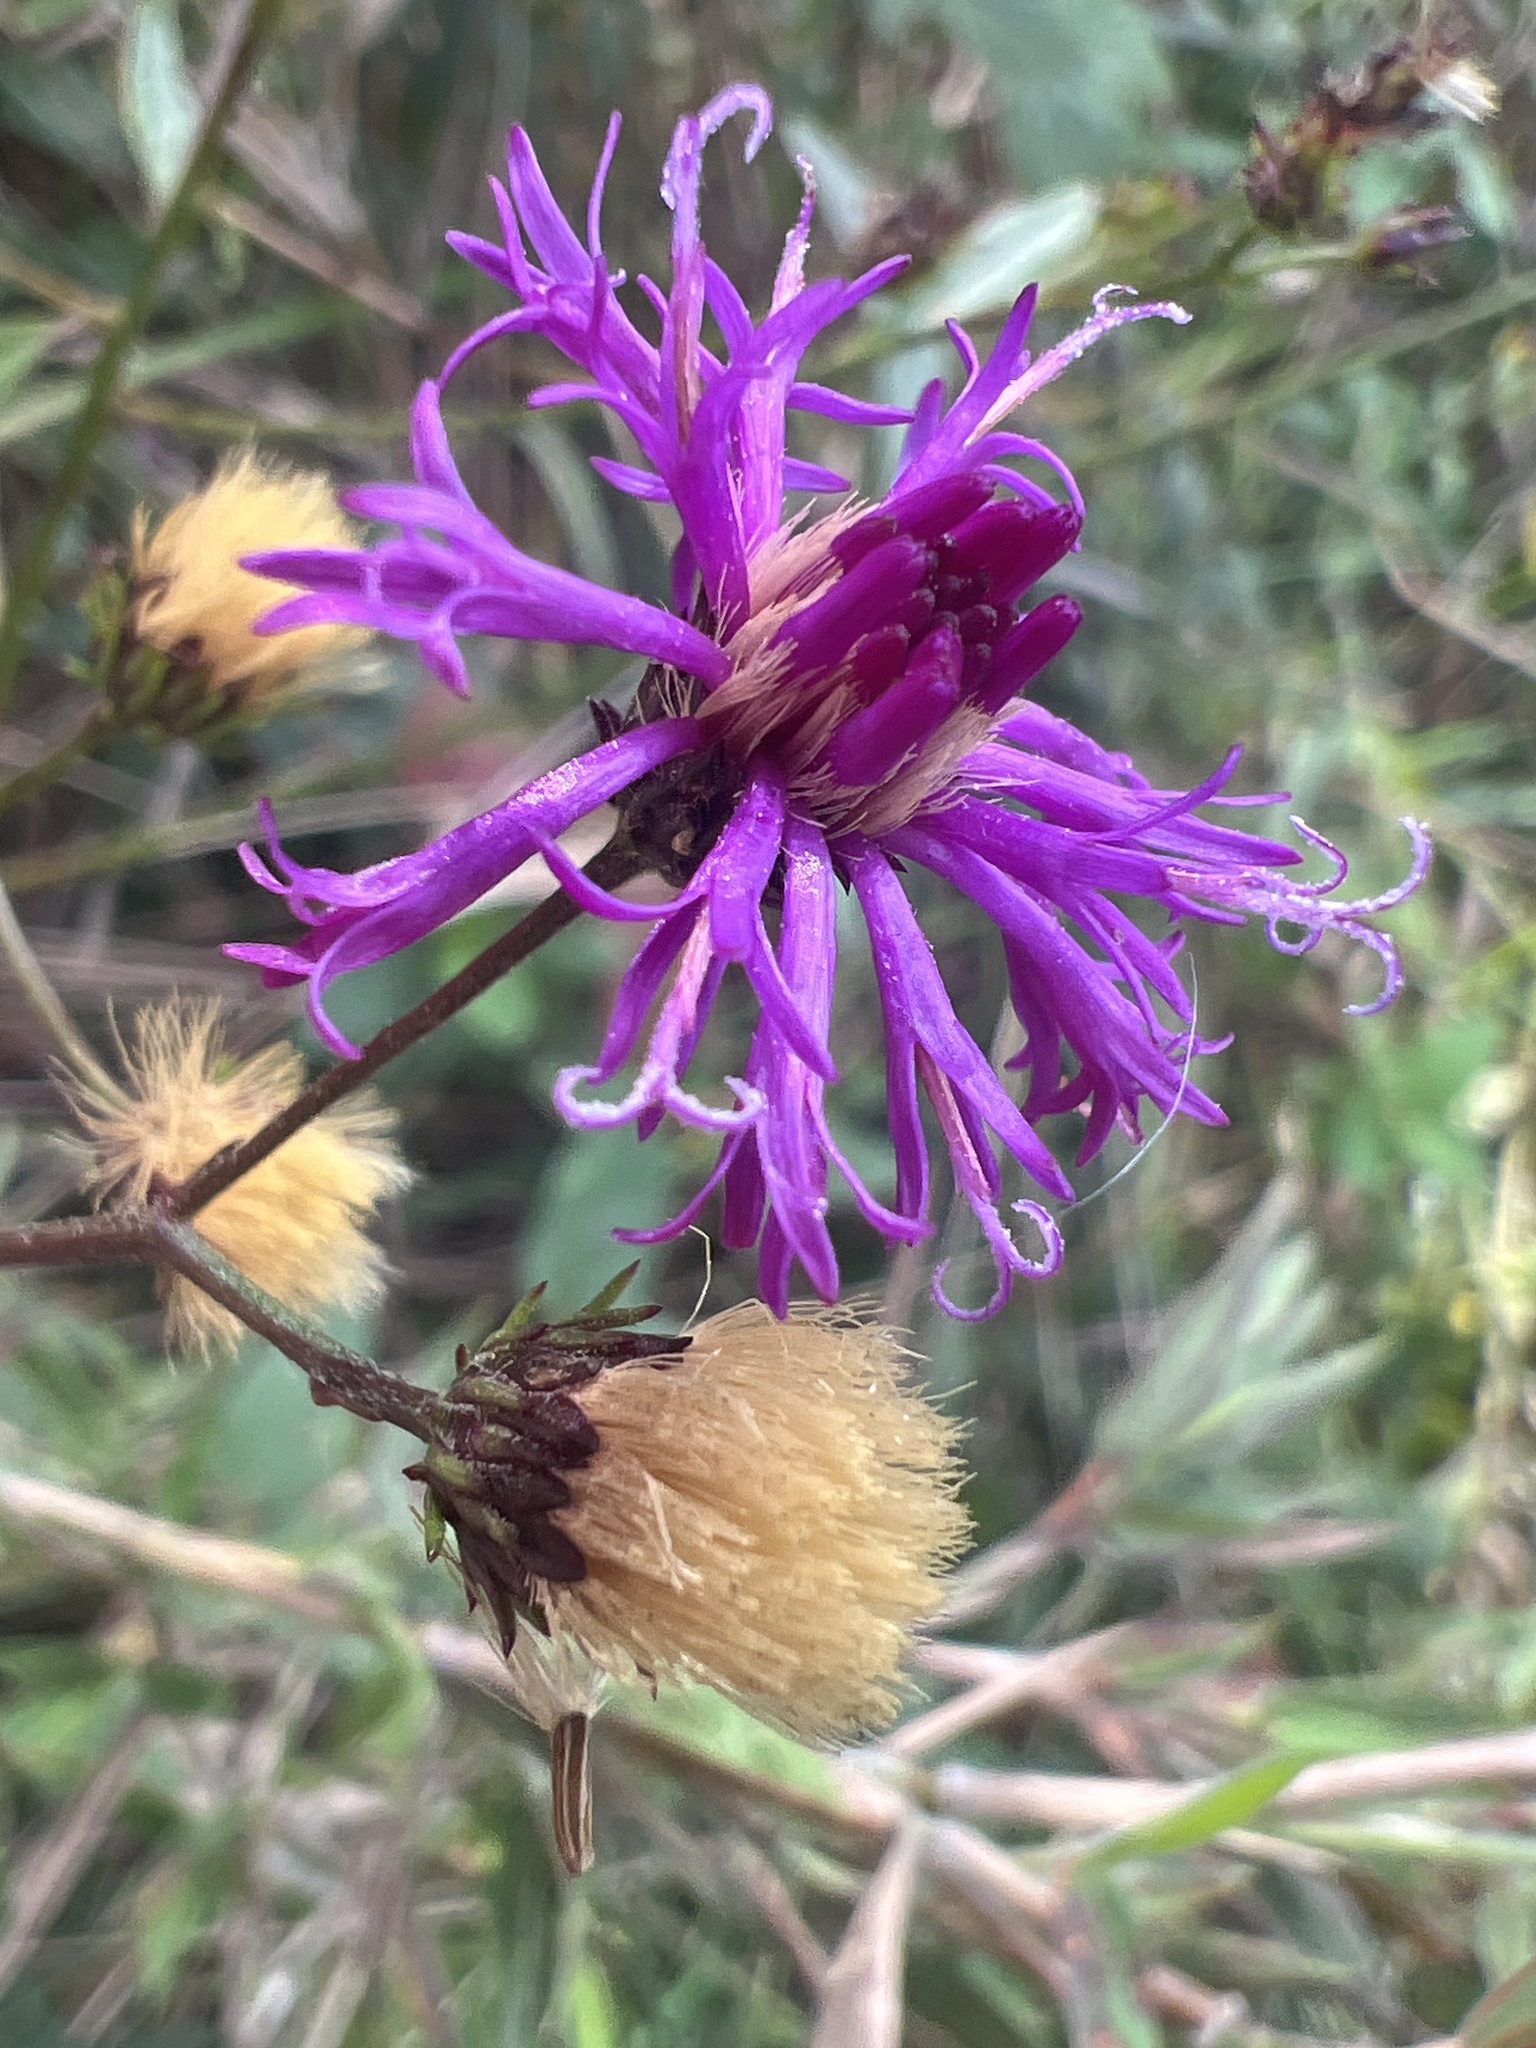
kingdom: Plantae
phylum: Tracheophyta
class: Magnoliopsida
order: Asterales
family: Asteraceae
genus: Vernonia
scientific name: Vernonia acaulis
